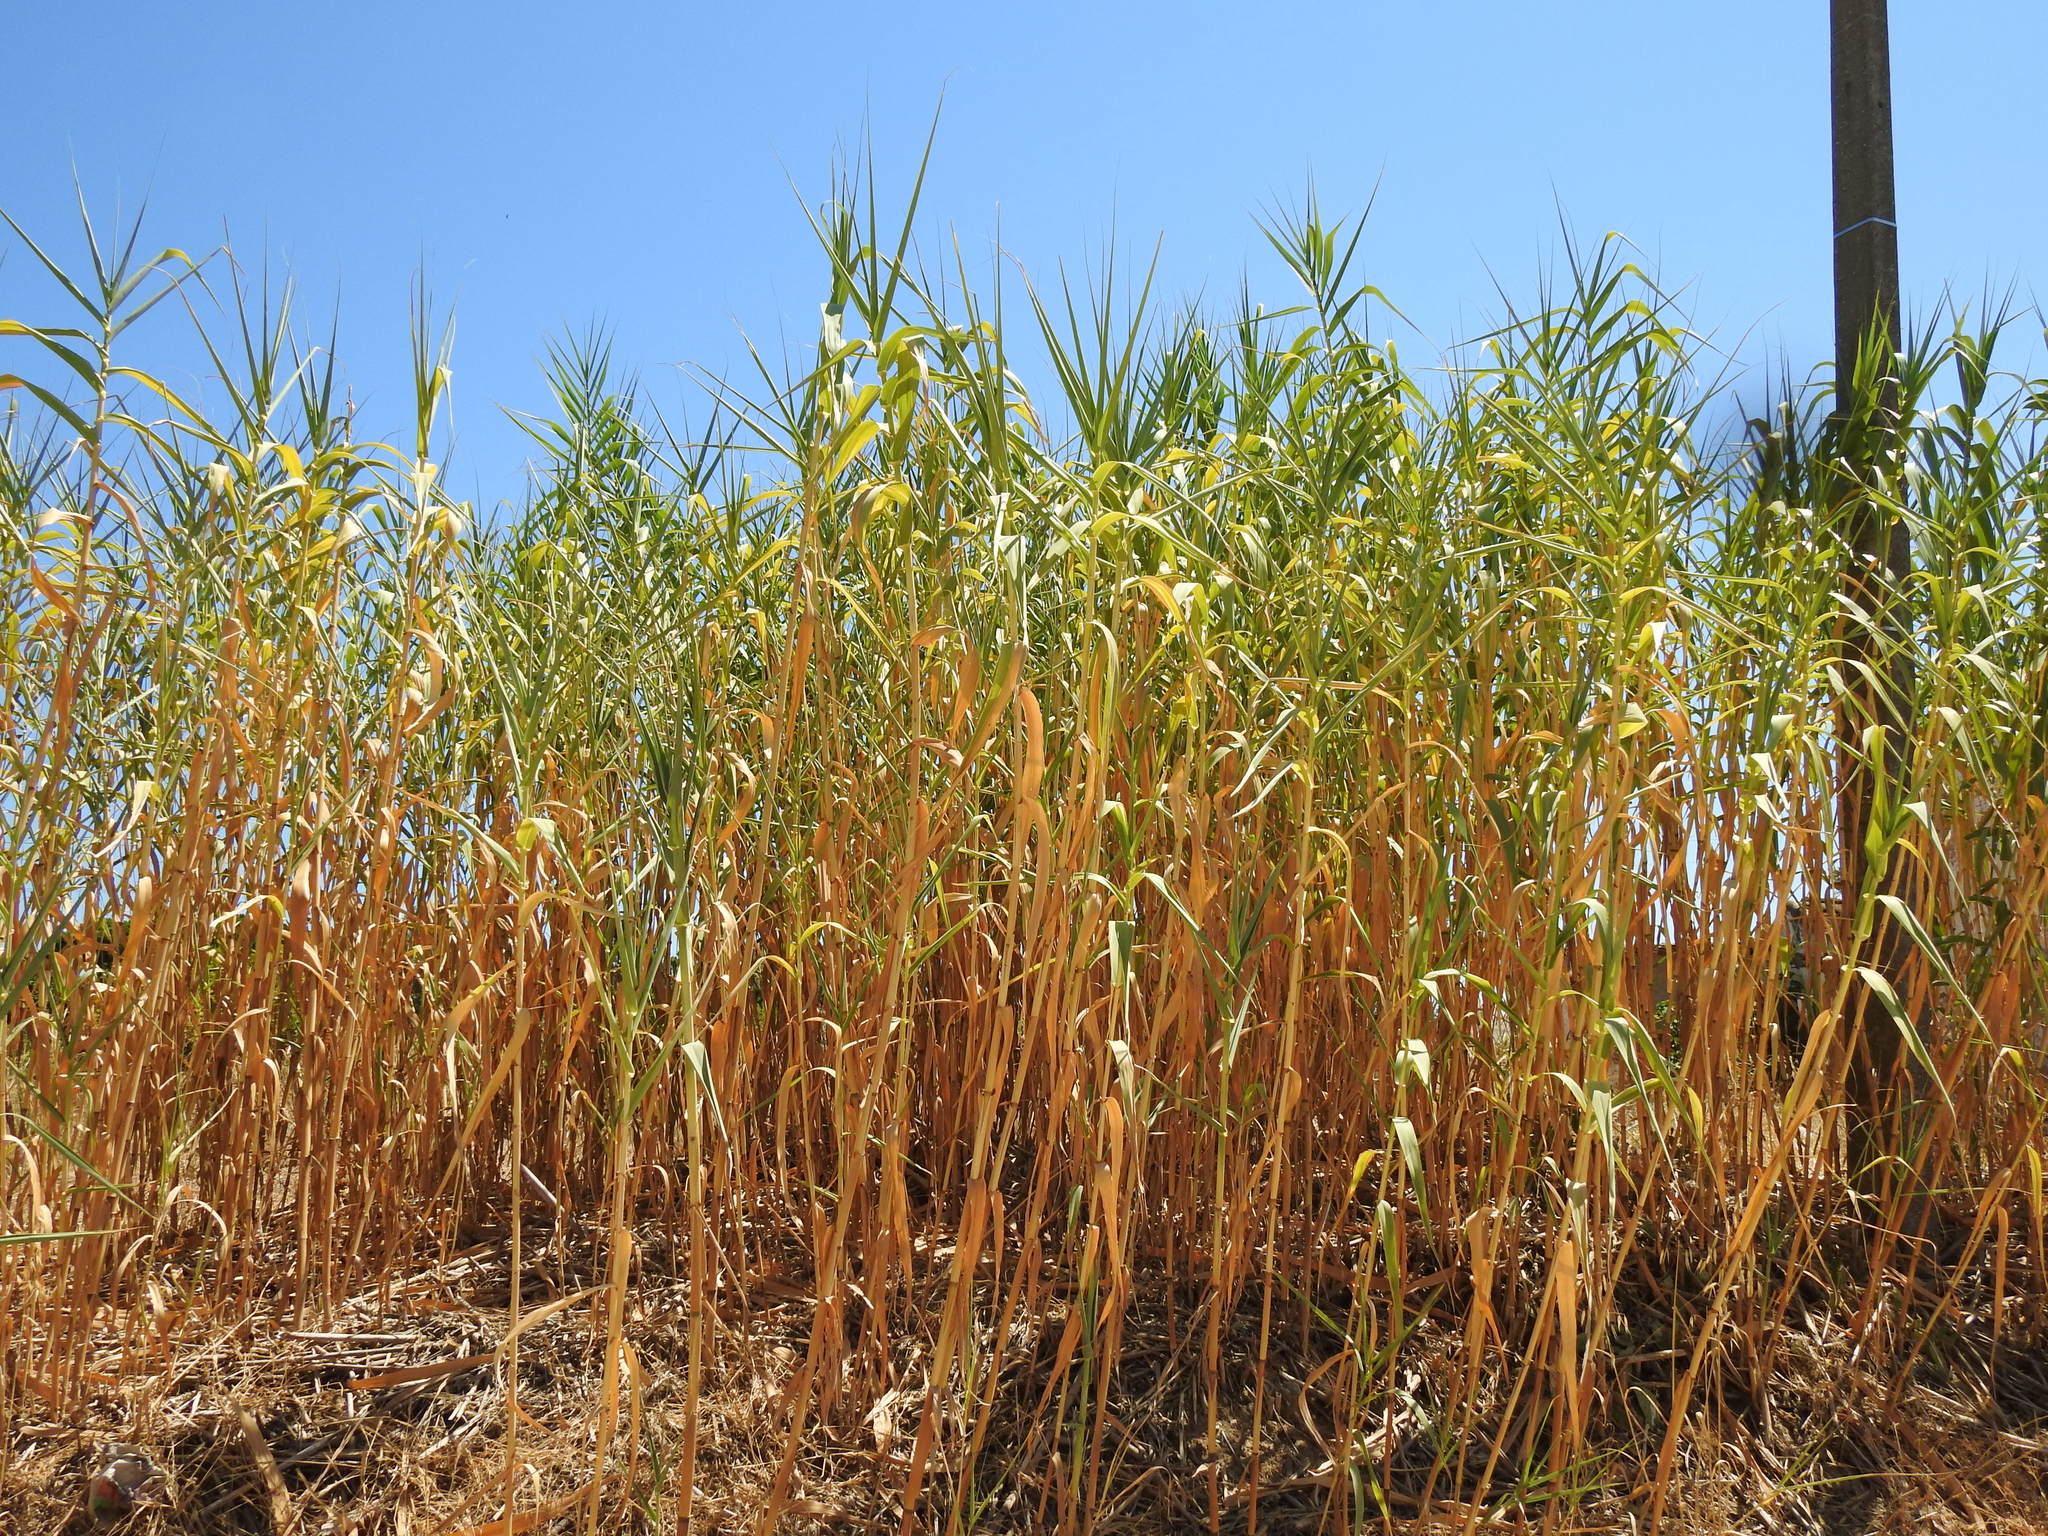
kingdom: Plantae
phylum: Tracheophyta
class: Liliopsida
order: Poales
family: Poaceae
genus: Arundo
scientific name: Arundo donax
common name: Giant reed
